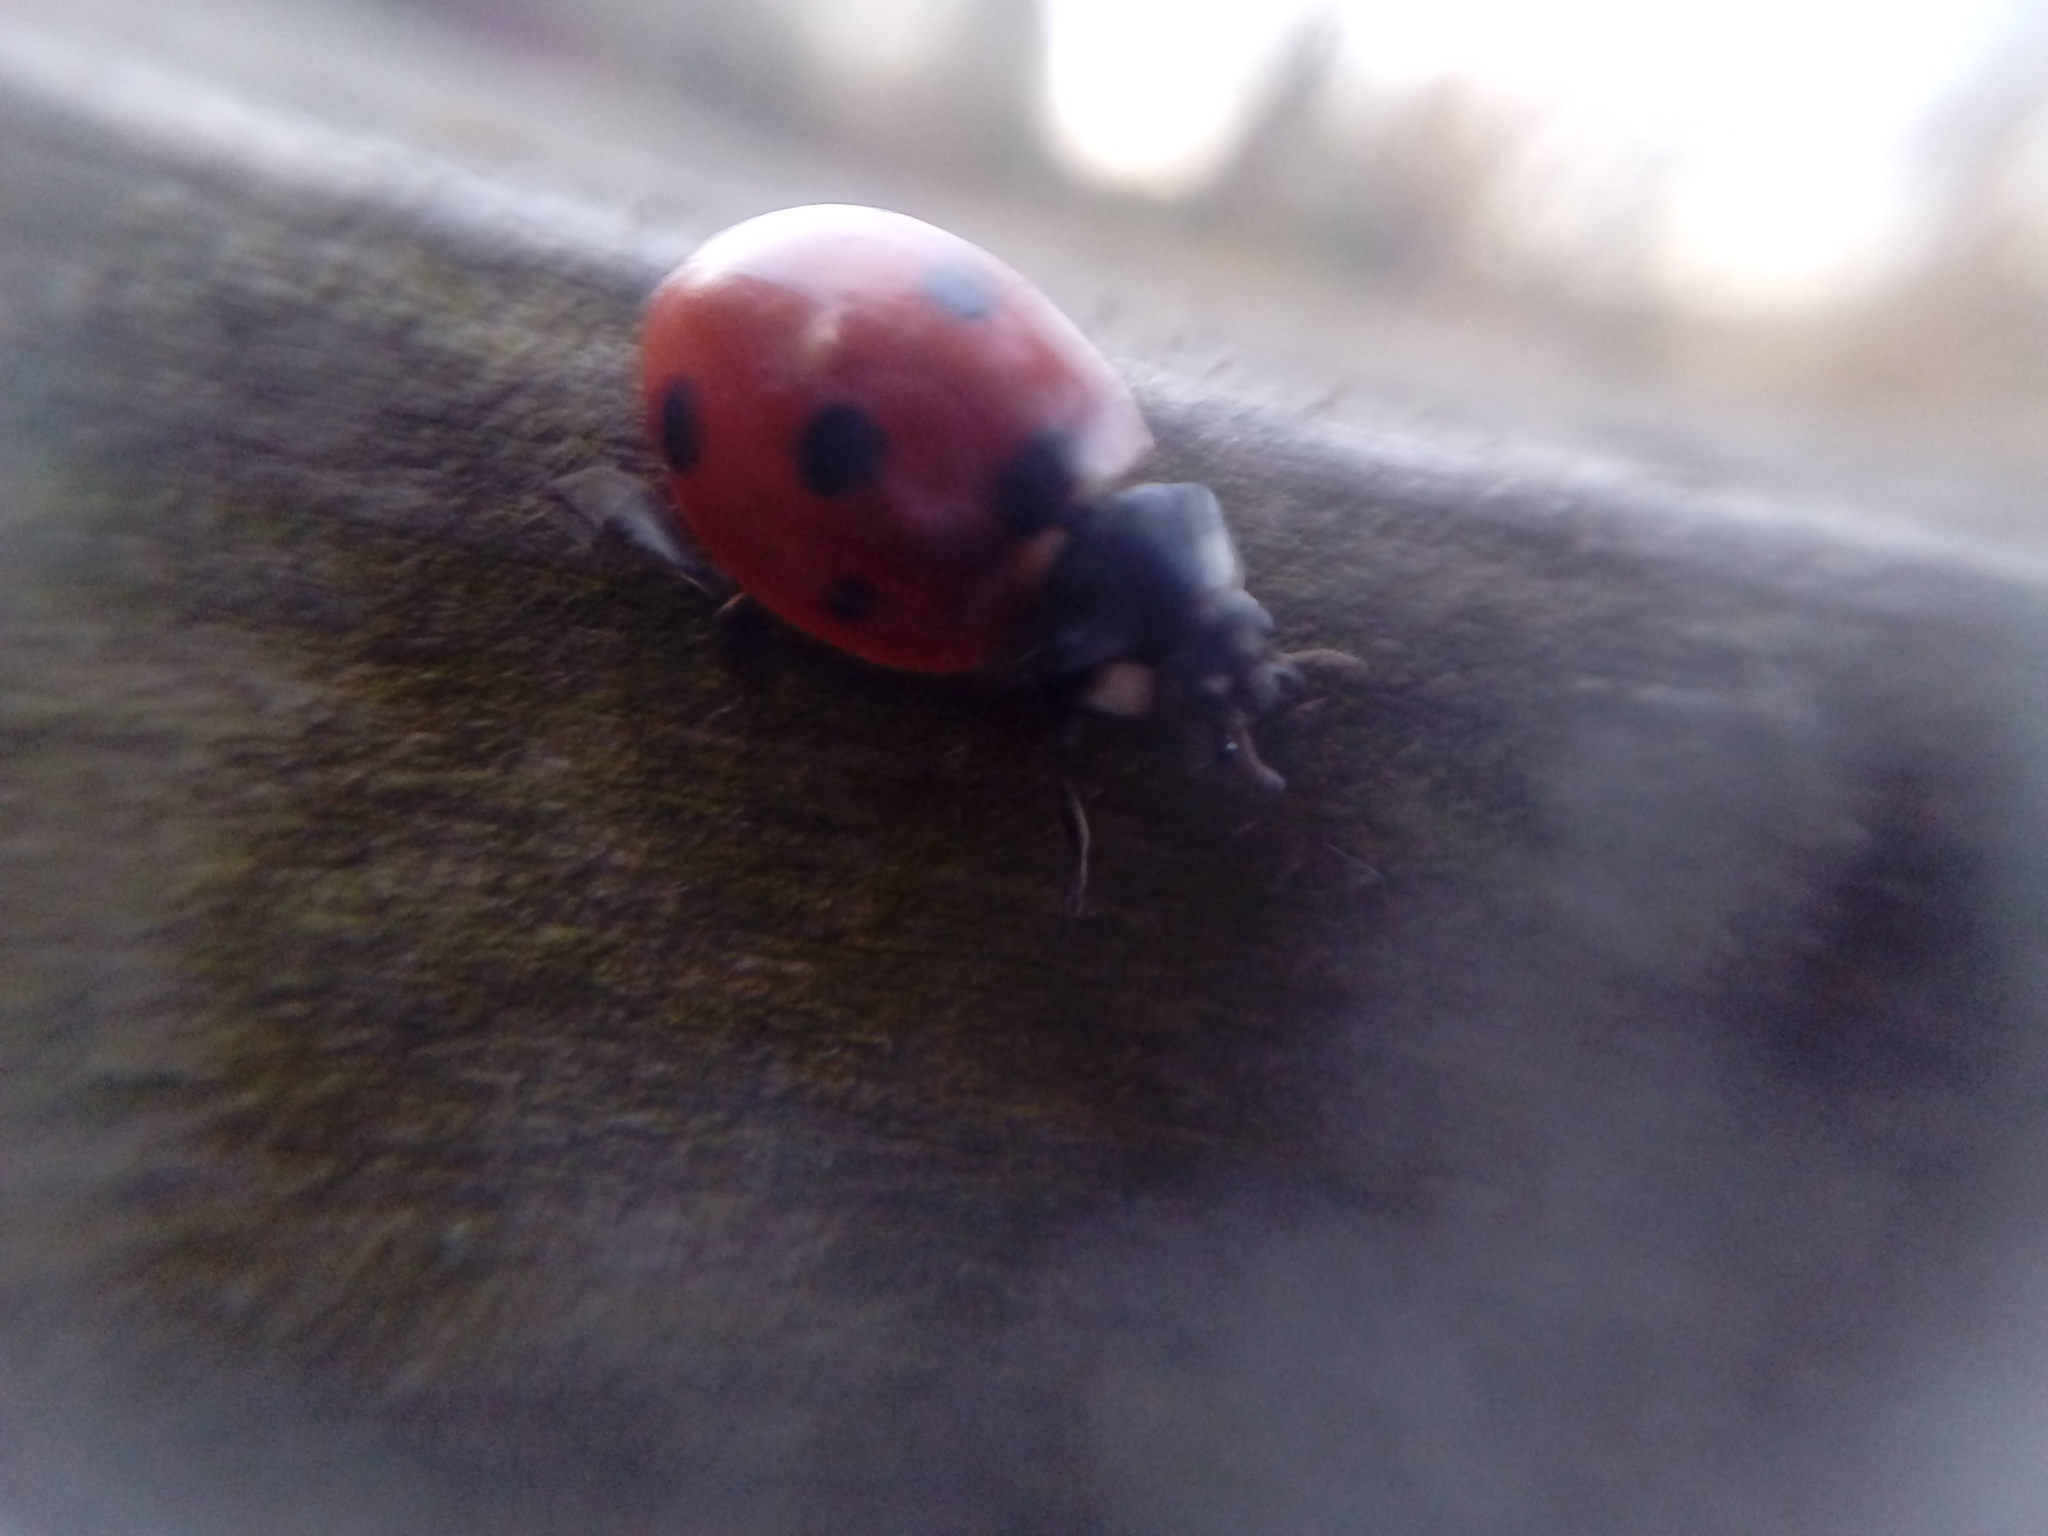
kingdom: Animalia
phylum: Arthropoda
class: Insecta
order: Coleoptera
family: Coccinellidae
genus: Coccinella
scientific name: Coccinella septempunctata
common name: Sevenspotted lady beetle
